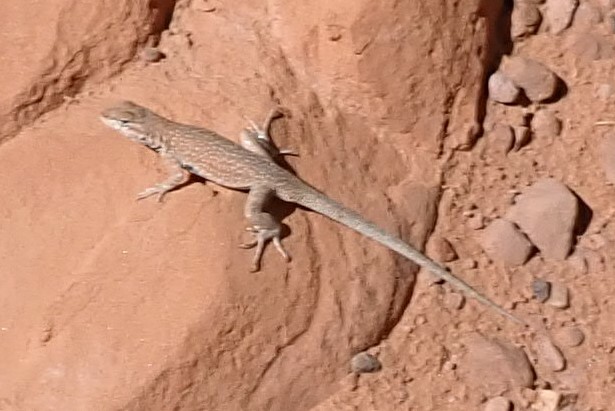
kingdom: Animalia
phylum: Chordata
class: Squamata
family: Phrynosomatidae
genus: Uta
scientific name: Uta stansburiana
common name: Side-blotched lizard
